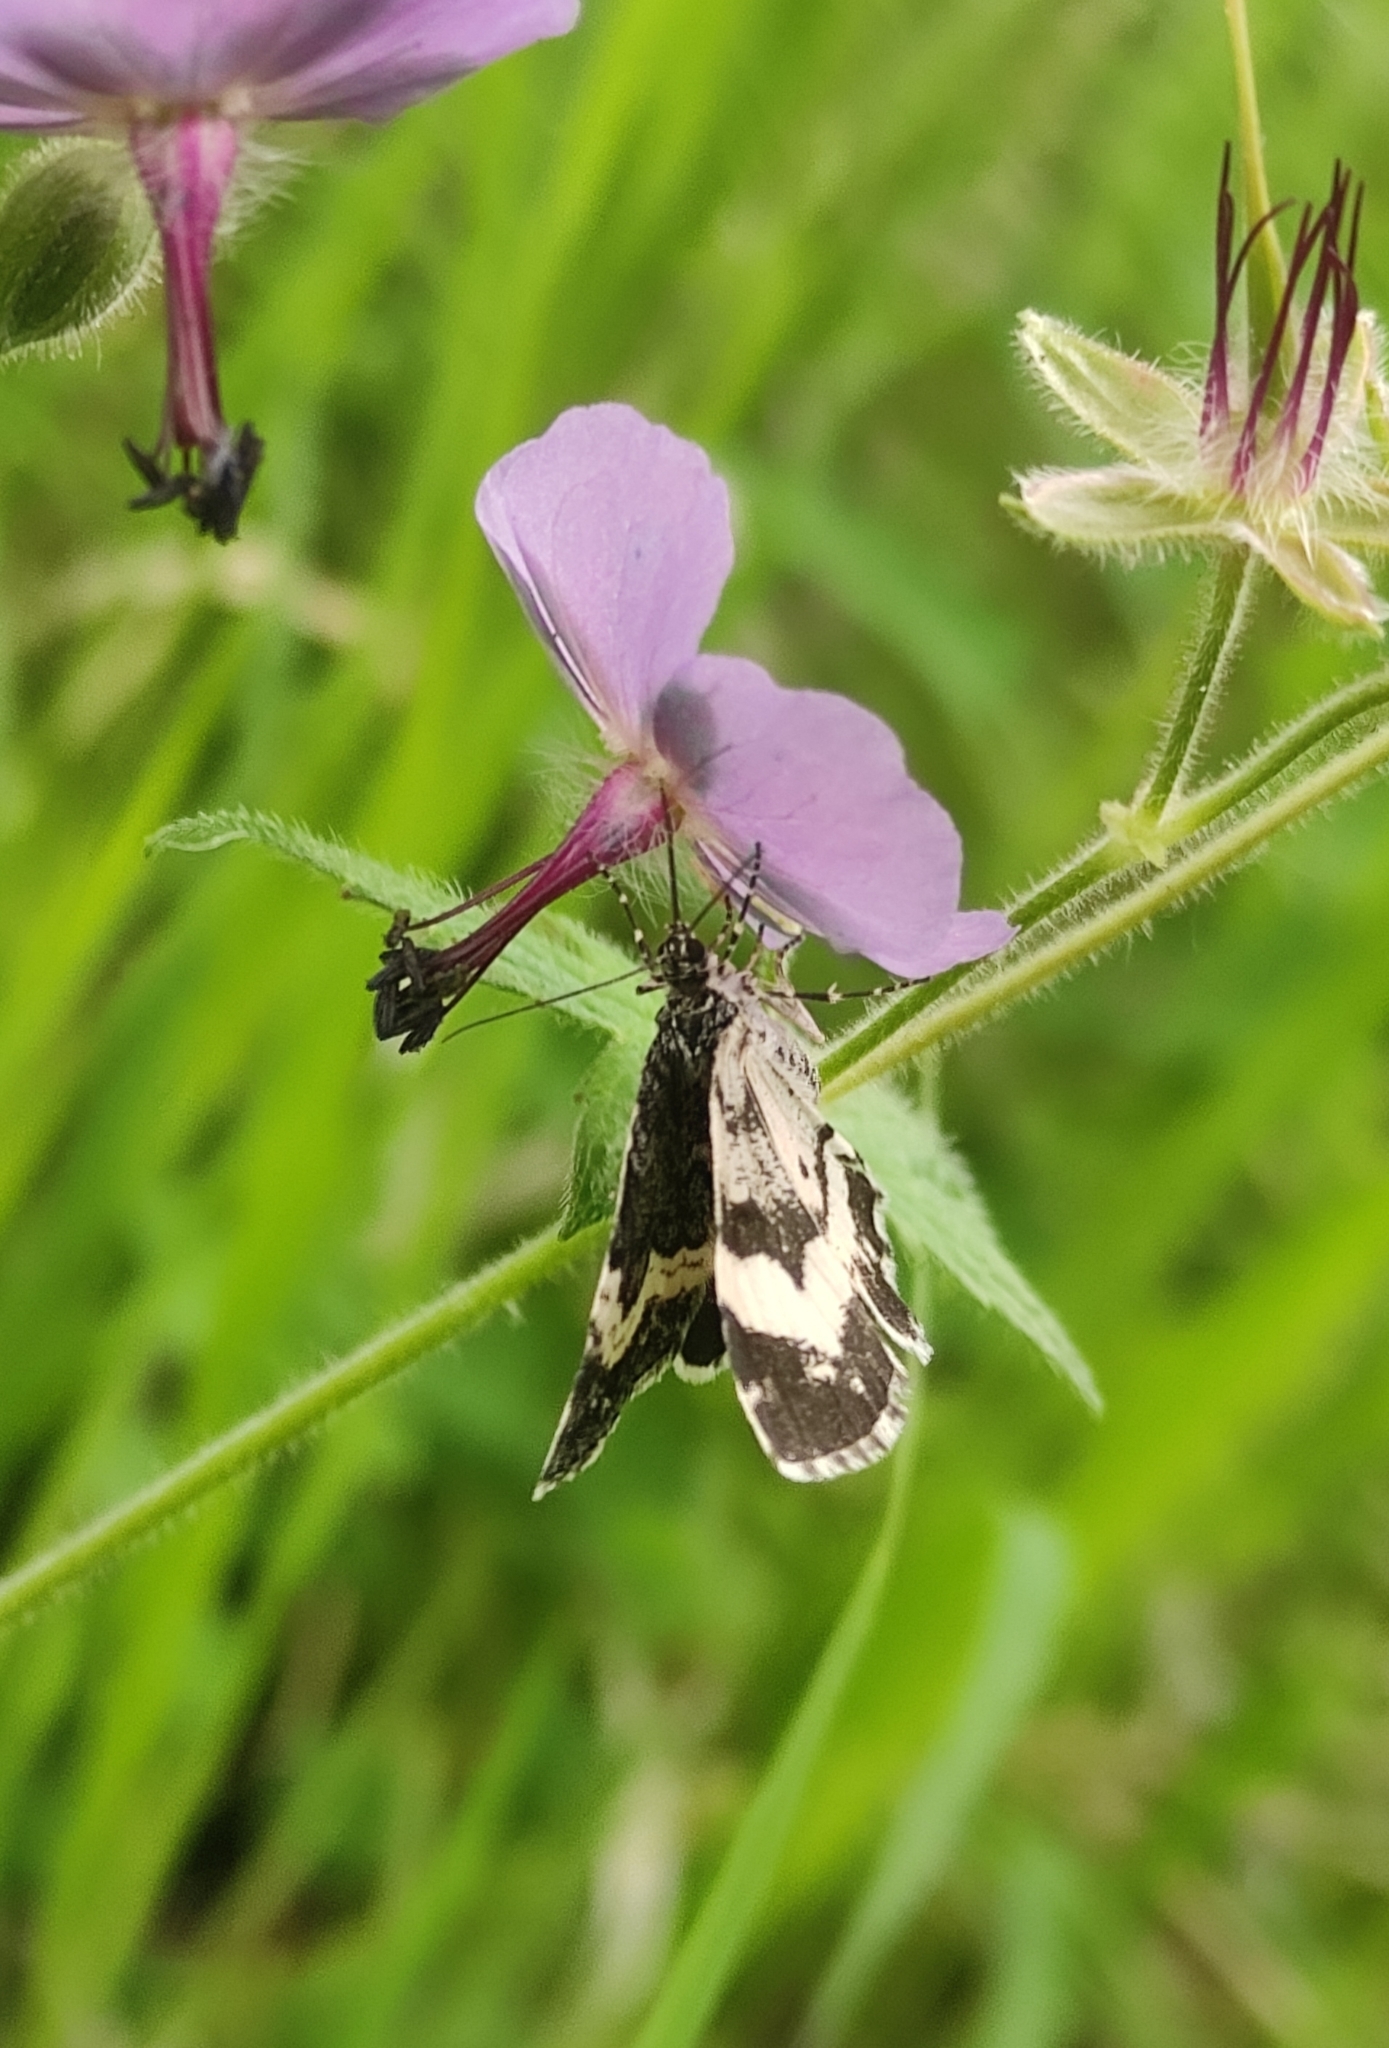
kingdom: Animalia
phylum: Arthropoda
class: Insecta
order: Lepidoptera
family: Geometridae
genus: Spargania
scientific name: Spargania luctuata
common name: White-banded carpet
